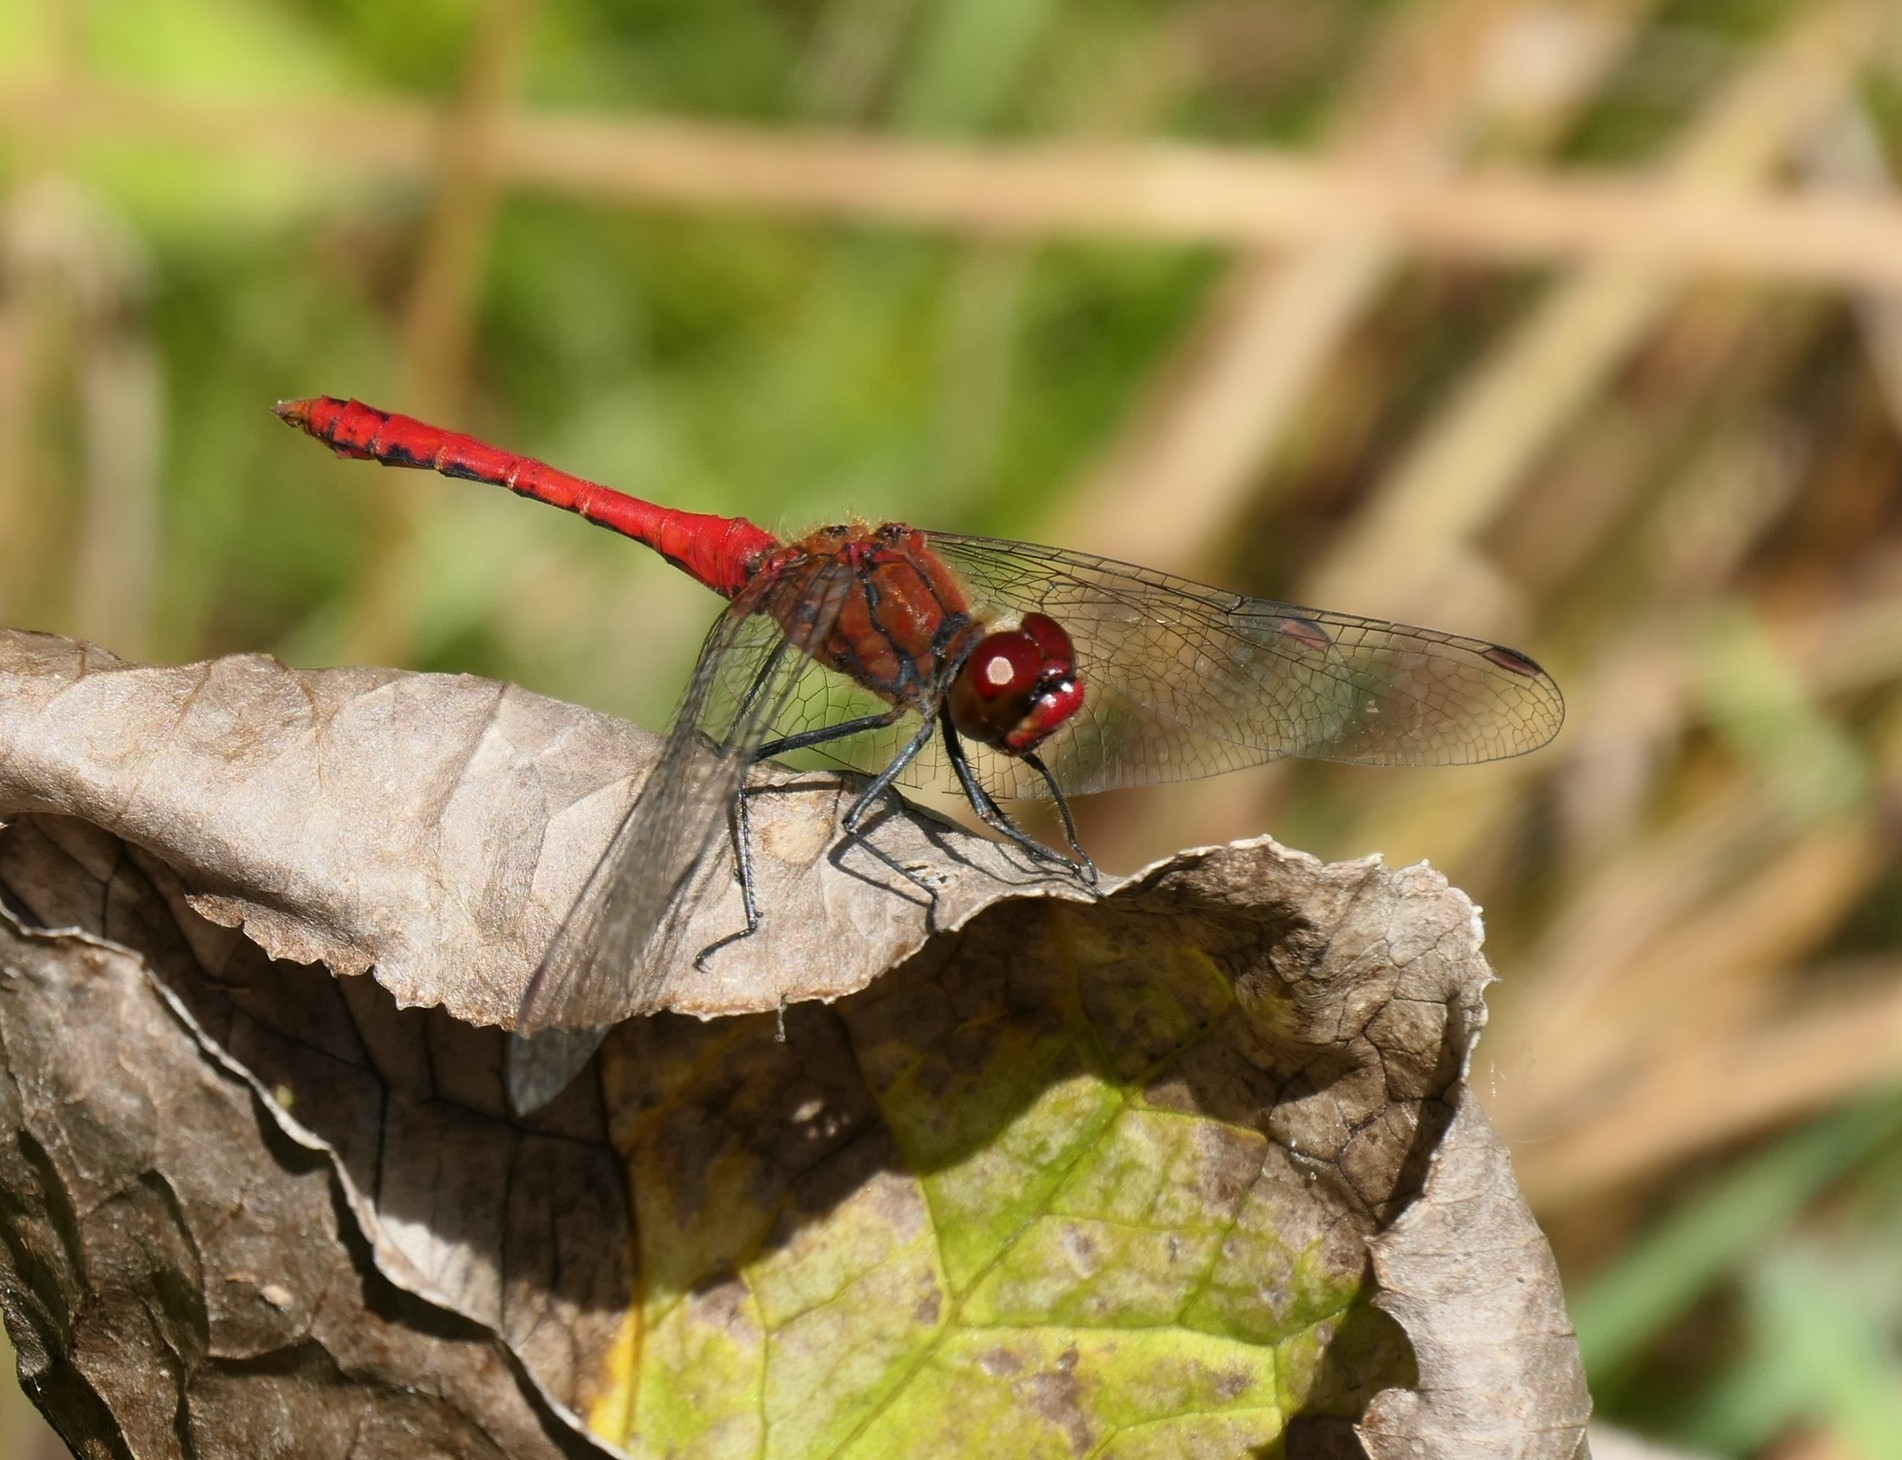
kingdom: Animalia
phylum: Arthropoda
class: Insecta
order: Odonata
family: Libellulidae
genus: Sympetrum
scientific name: Sympetrum sanguineum
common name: Ruddy darter
